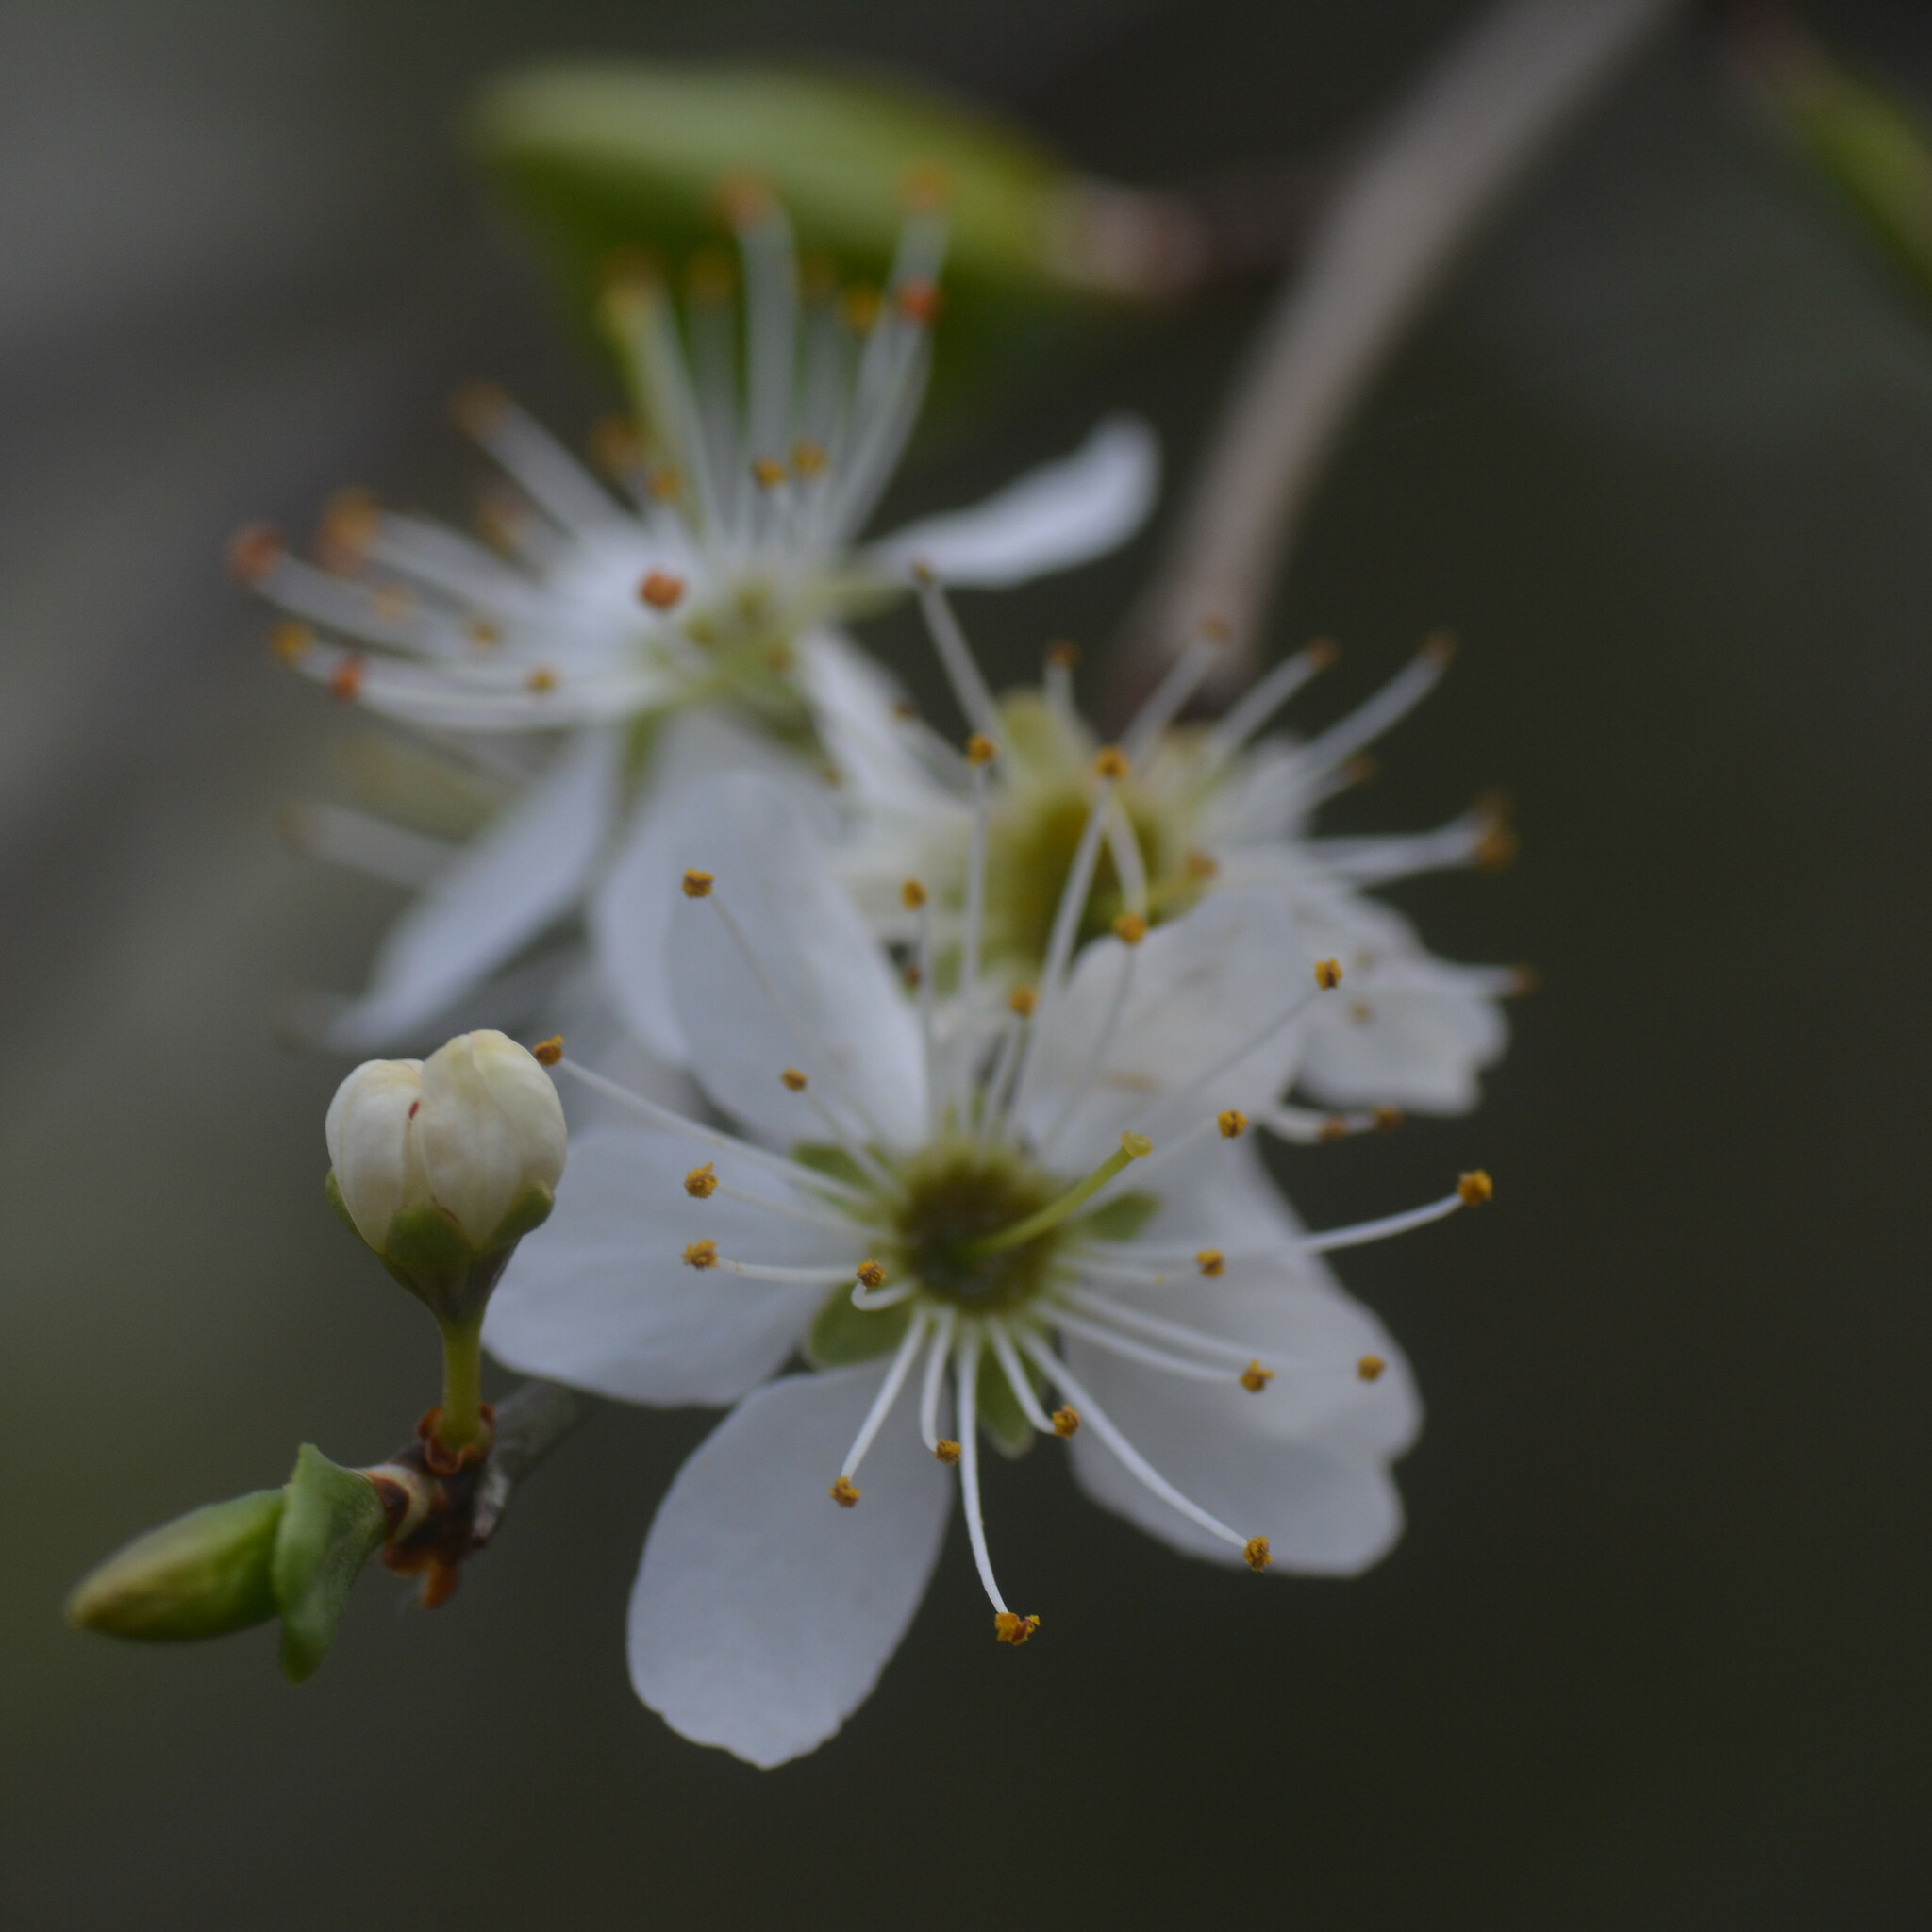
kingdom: Plantae
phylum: Tracheophyta
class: Magnoliopsida
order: Rosales
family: Rosaceae
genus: Prunus
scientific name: Prunus spinosa
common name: Blackthorn
